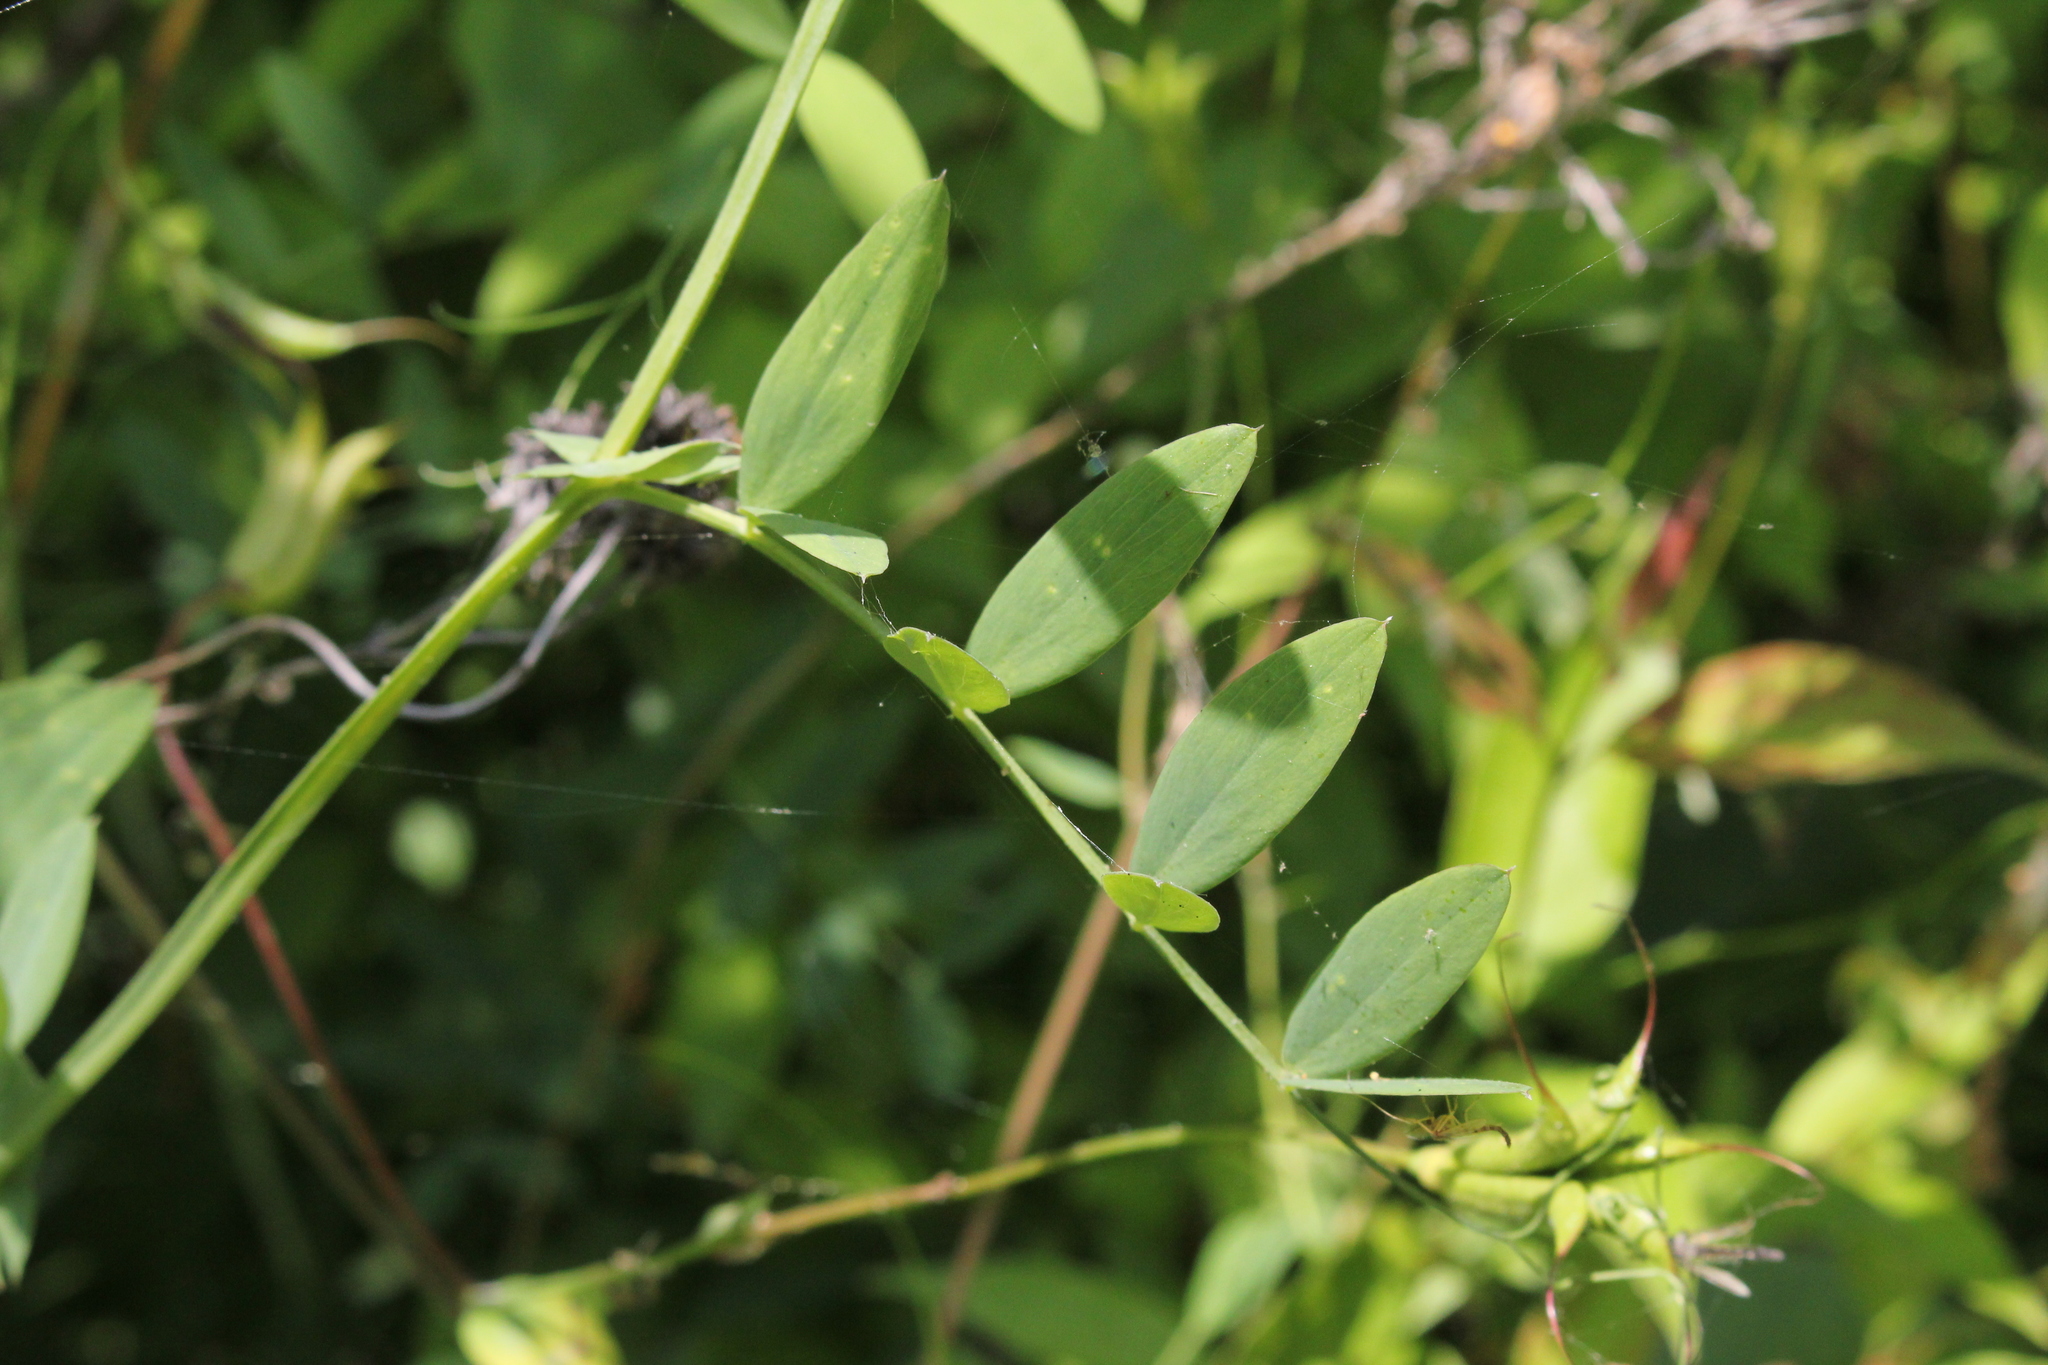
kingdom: Plantae
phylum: Tracheophyta
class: Magnoliopsida
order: Fabales
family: Fabaceae
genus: Lathyrus
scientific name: Lathyrus palustris
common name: Marsh pea
